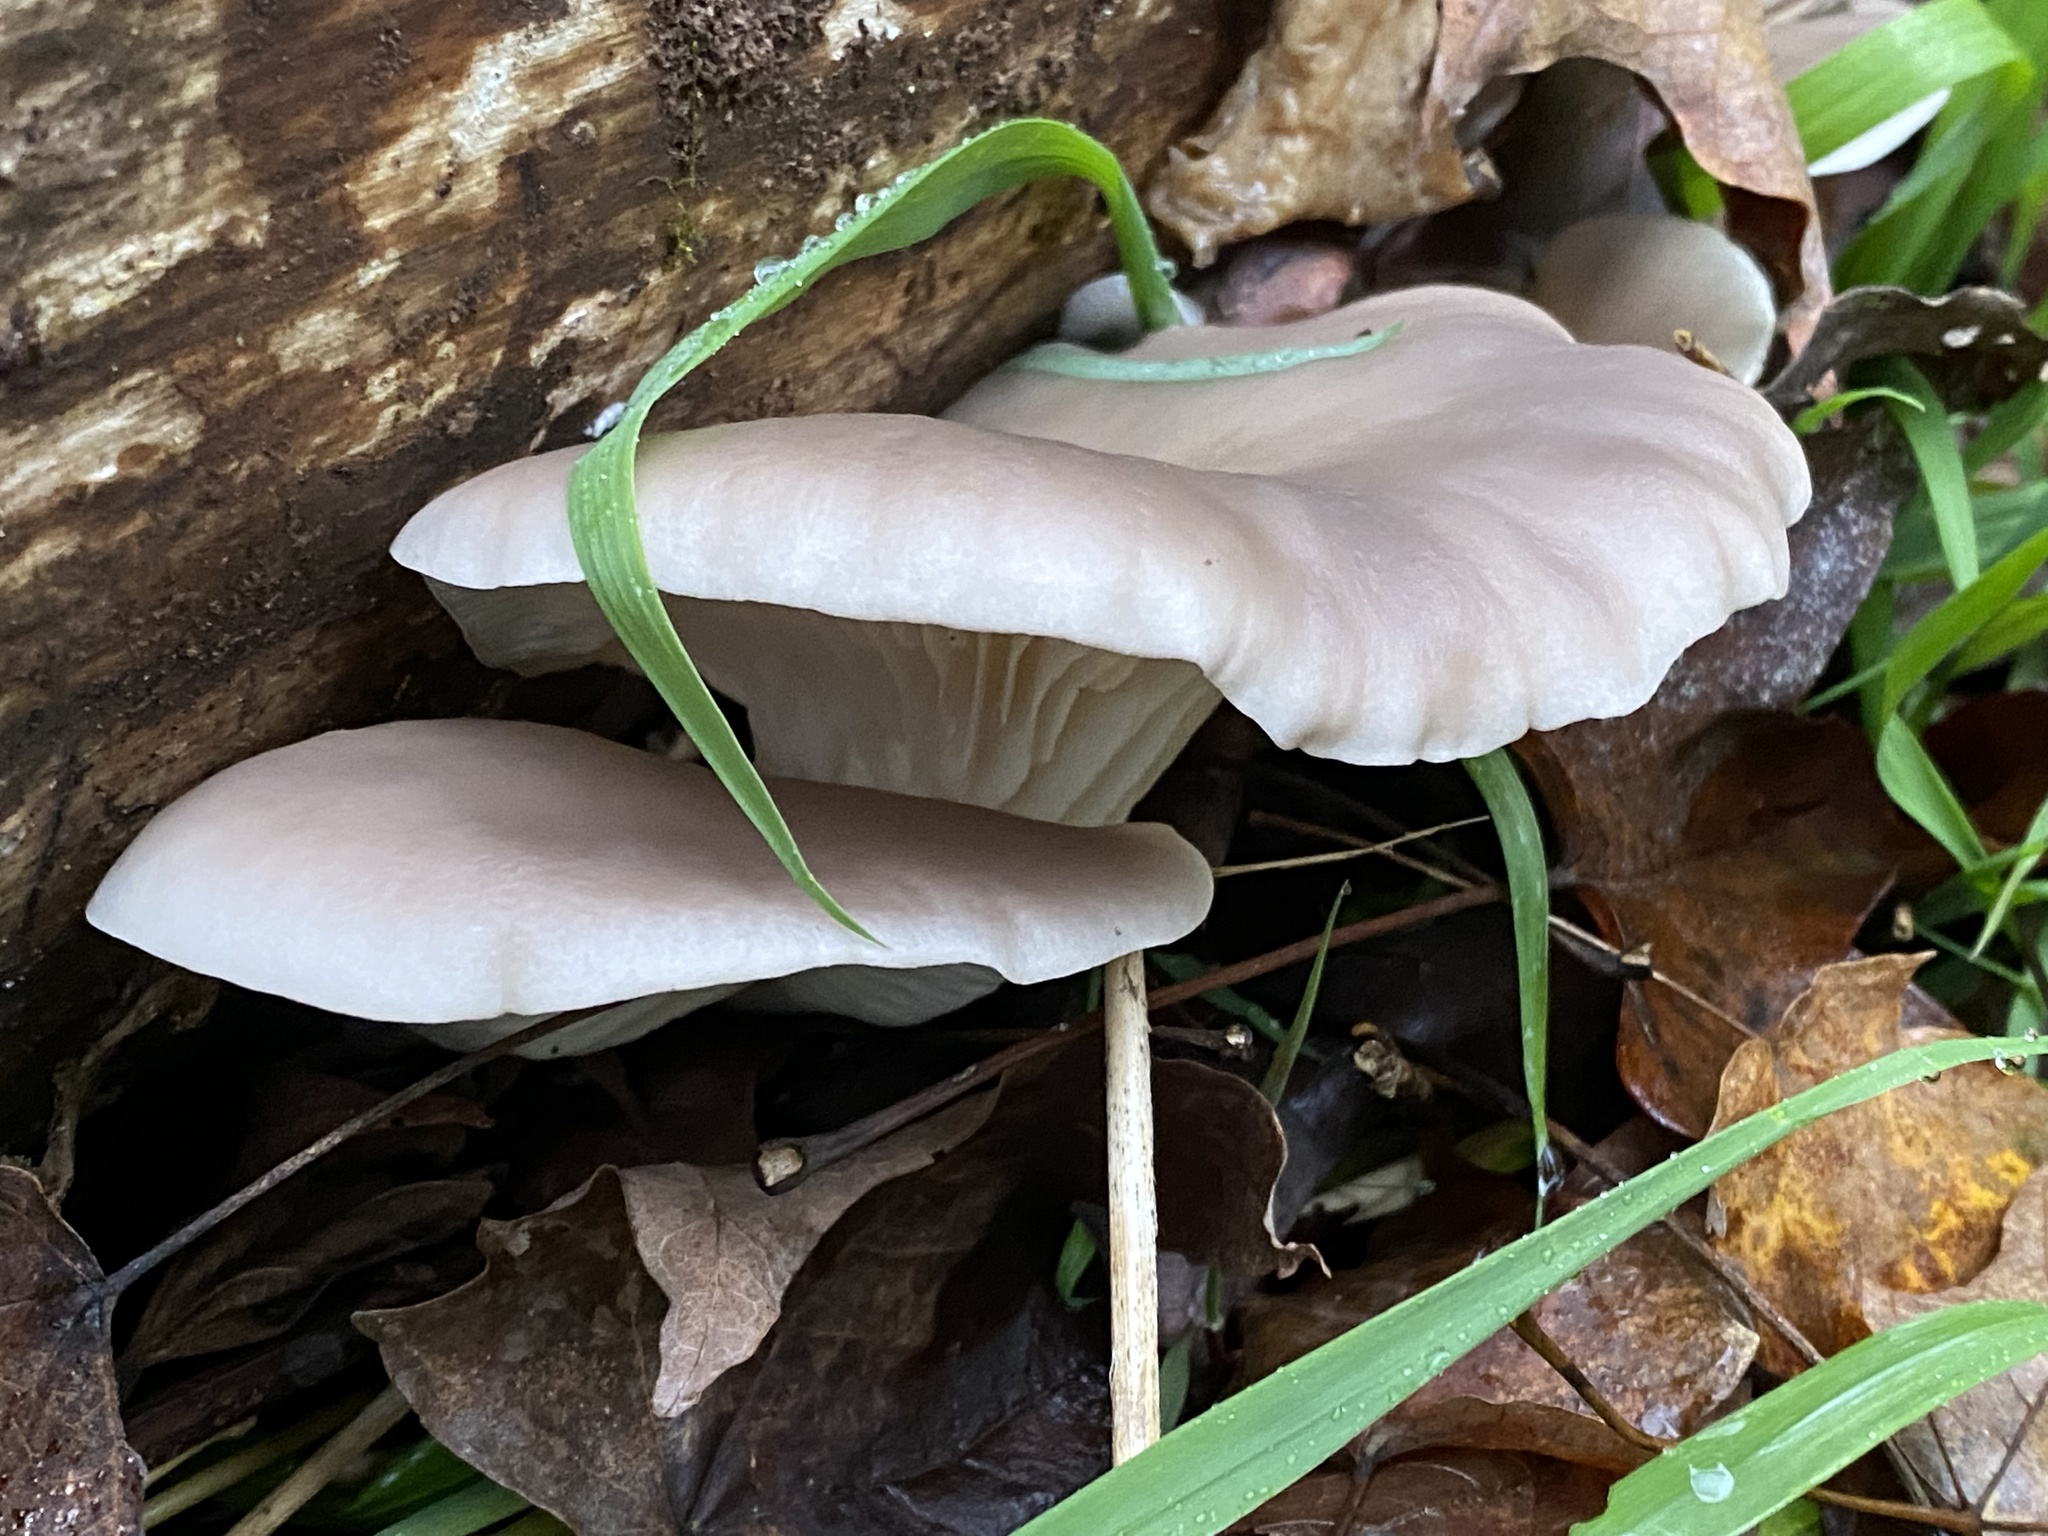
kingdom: Fungi
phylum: Basidiomycota
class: Agaricomycetes
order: Agaricales
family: Pleurotaceae
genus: Pleurotus
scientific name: Pleurotus ostreatus
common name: Oyster mushroom
